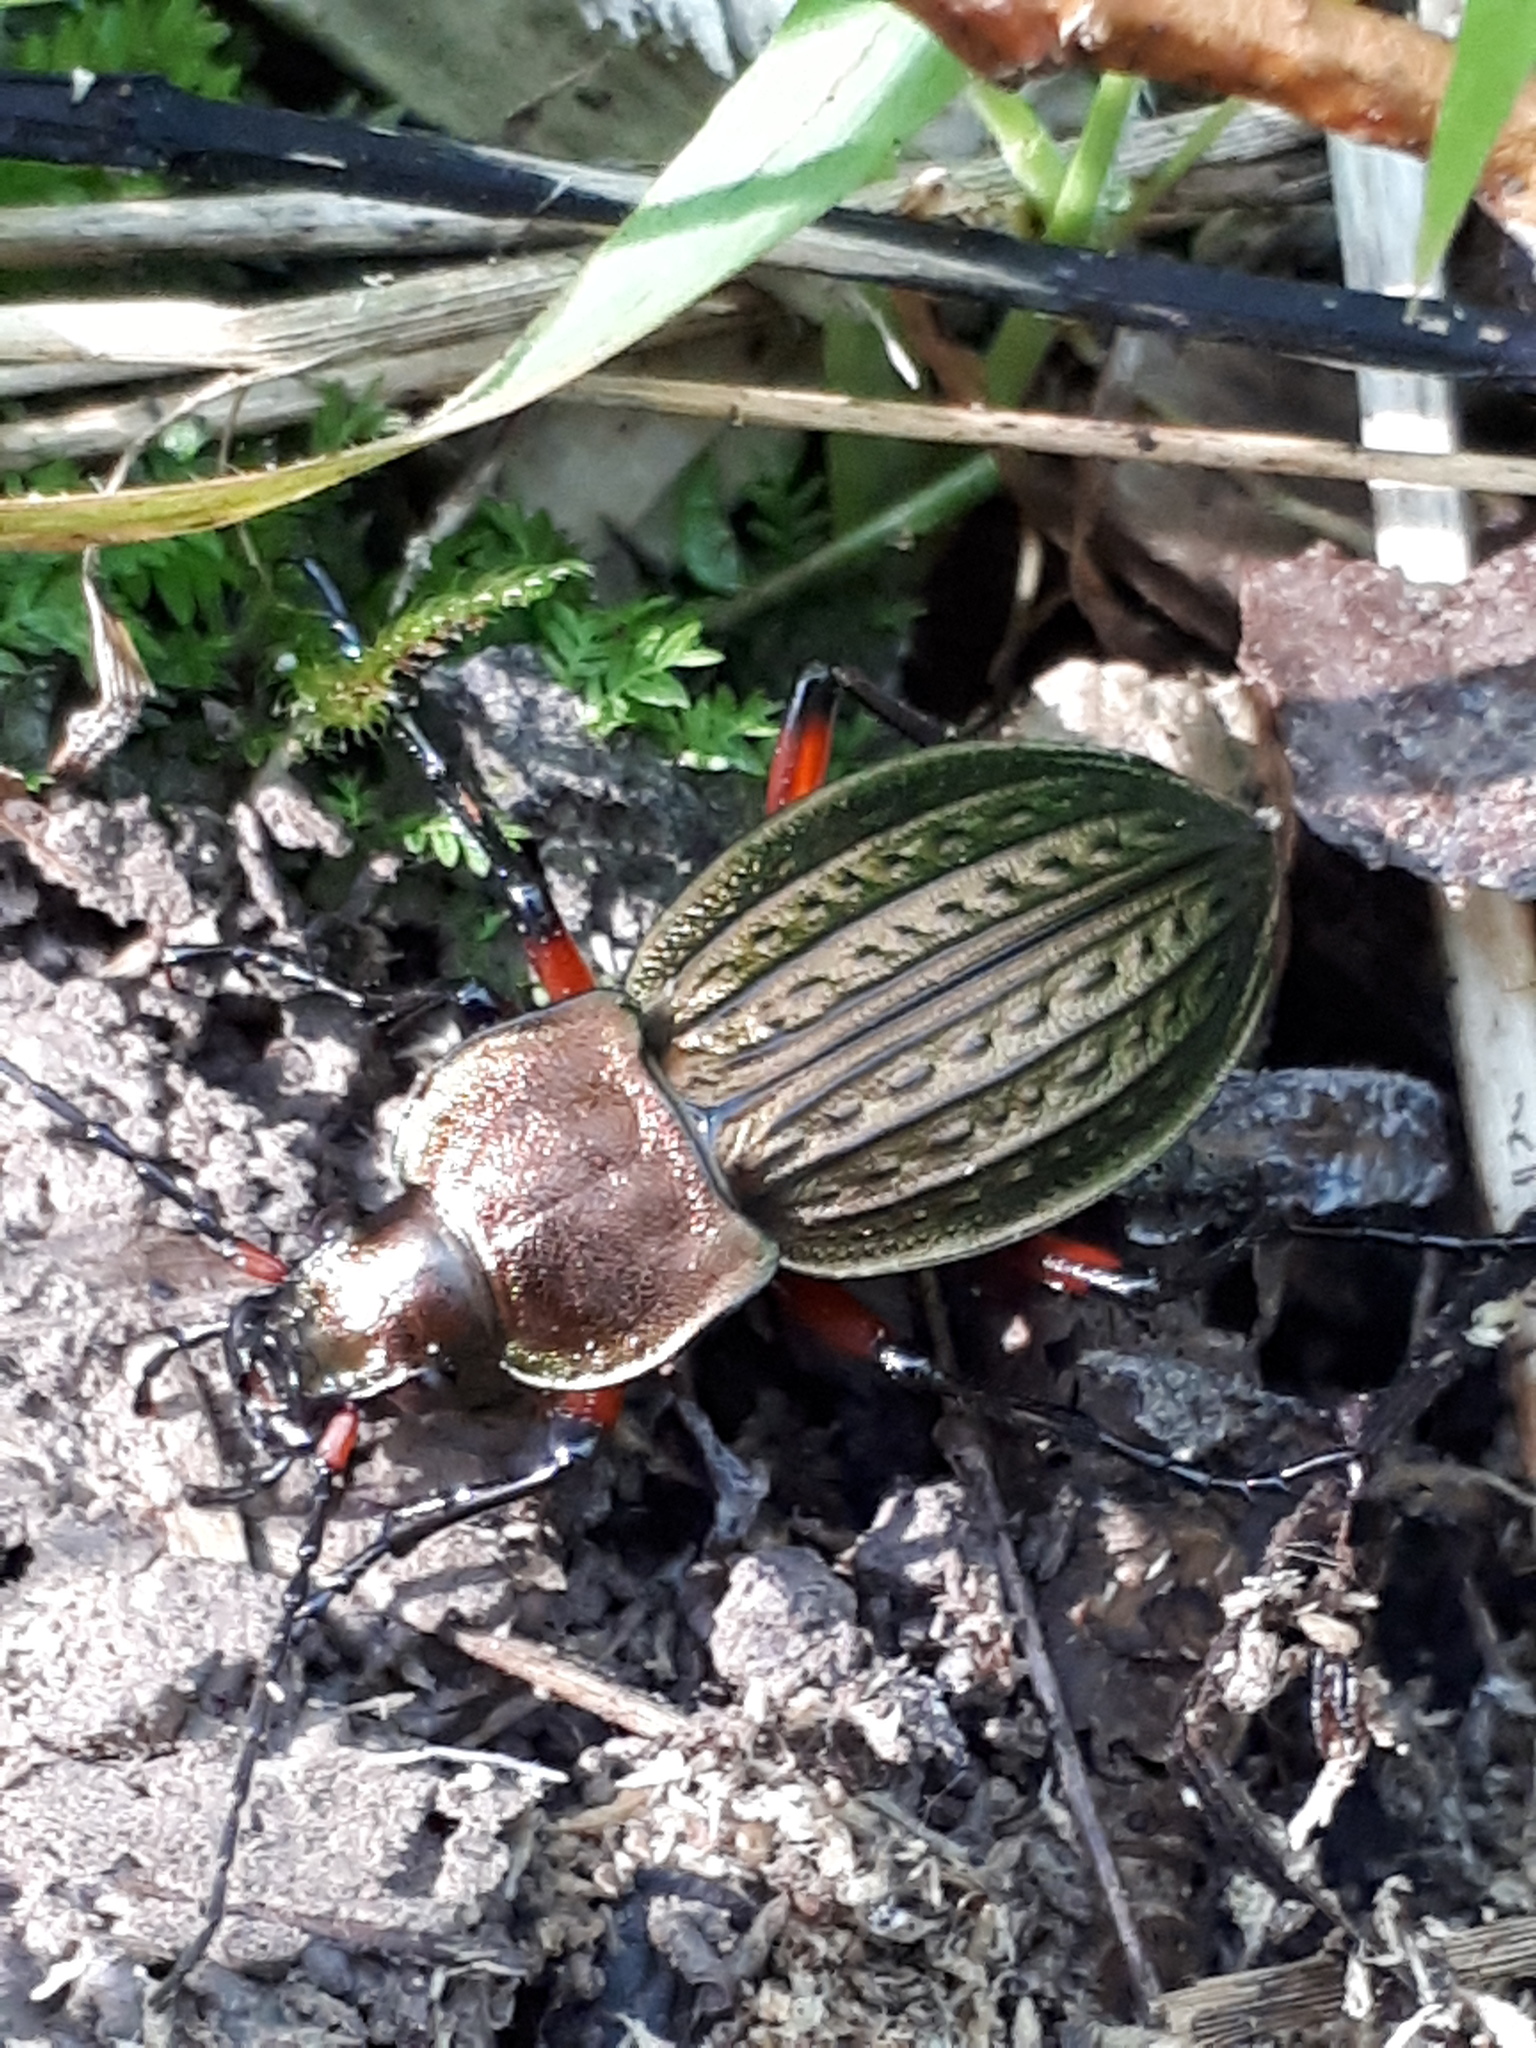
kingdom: Animalia
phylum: Arthropoda
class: Insecta
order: Coleoptera
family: Carabidae
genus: Carabus
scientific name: Carabus cancellatus
